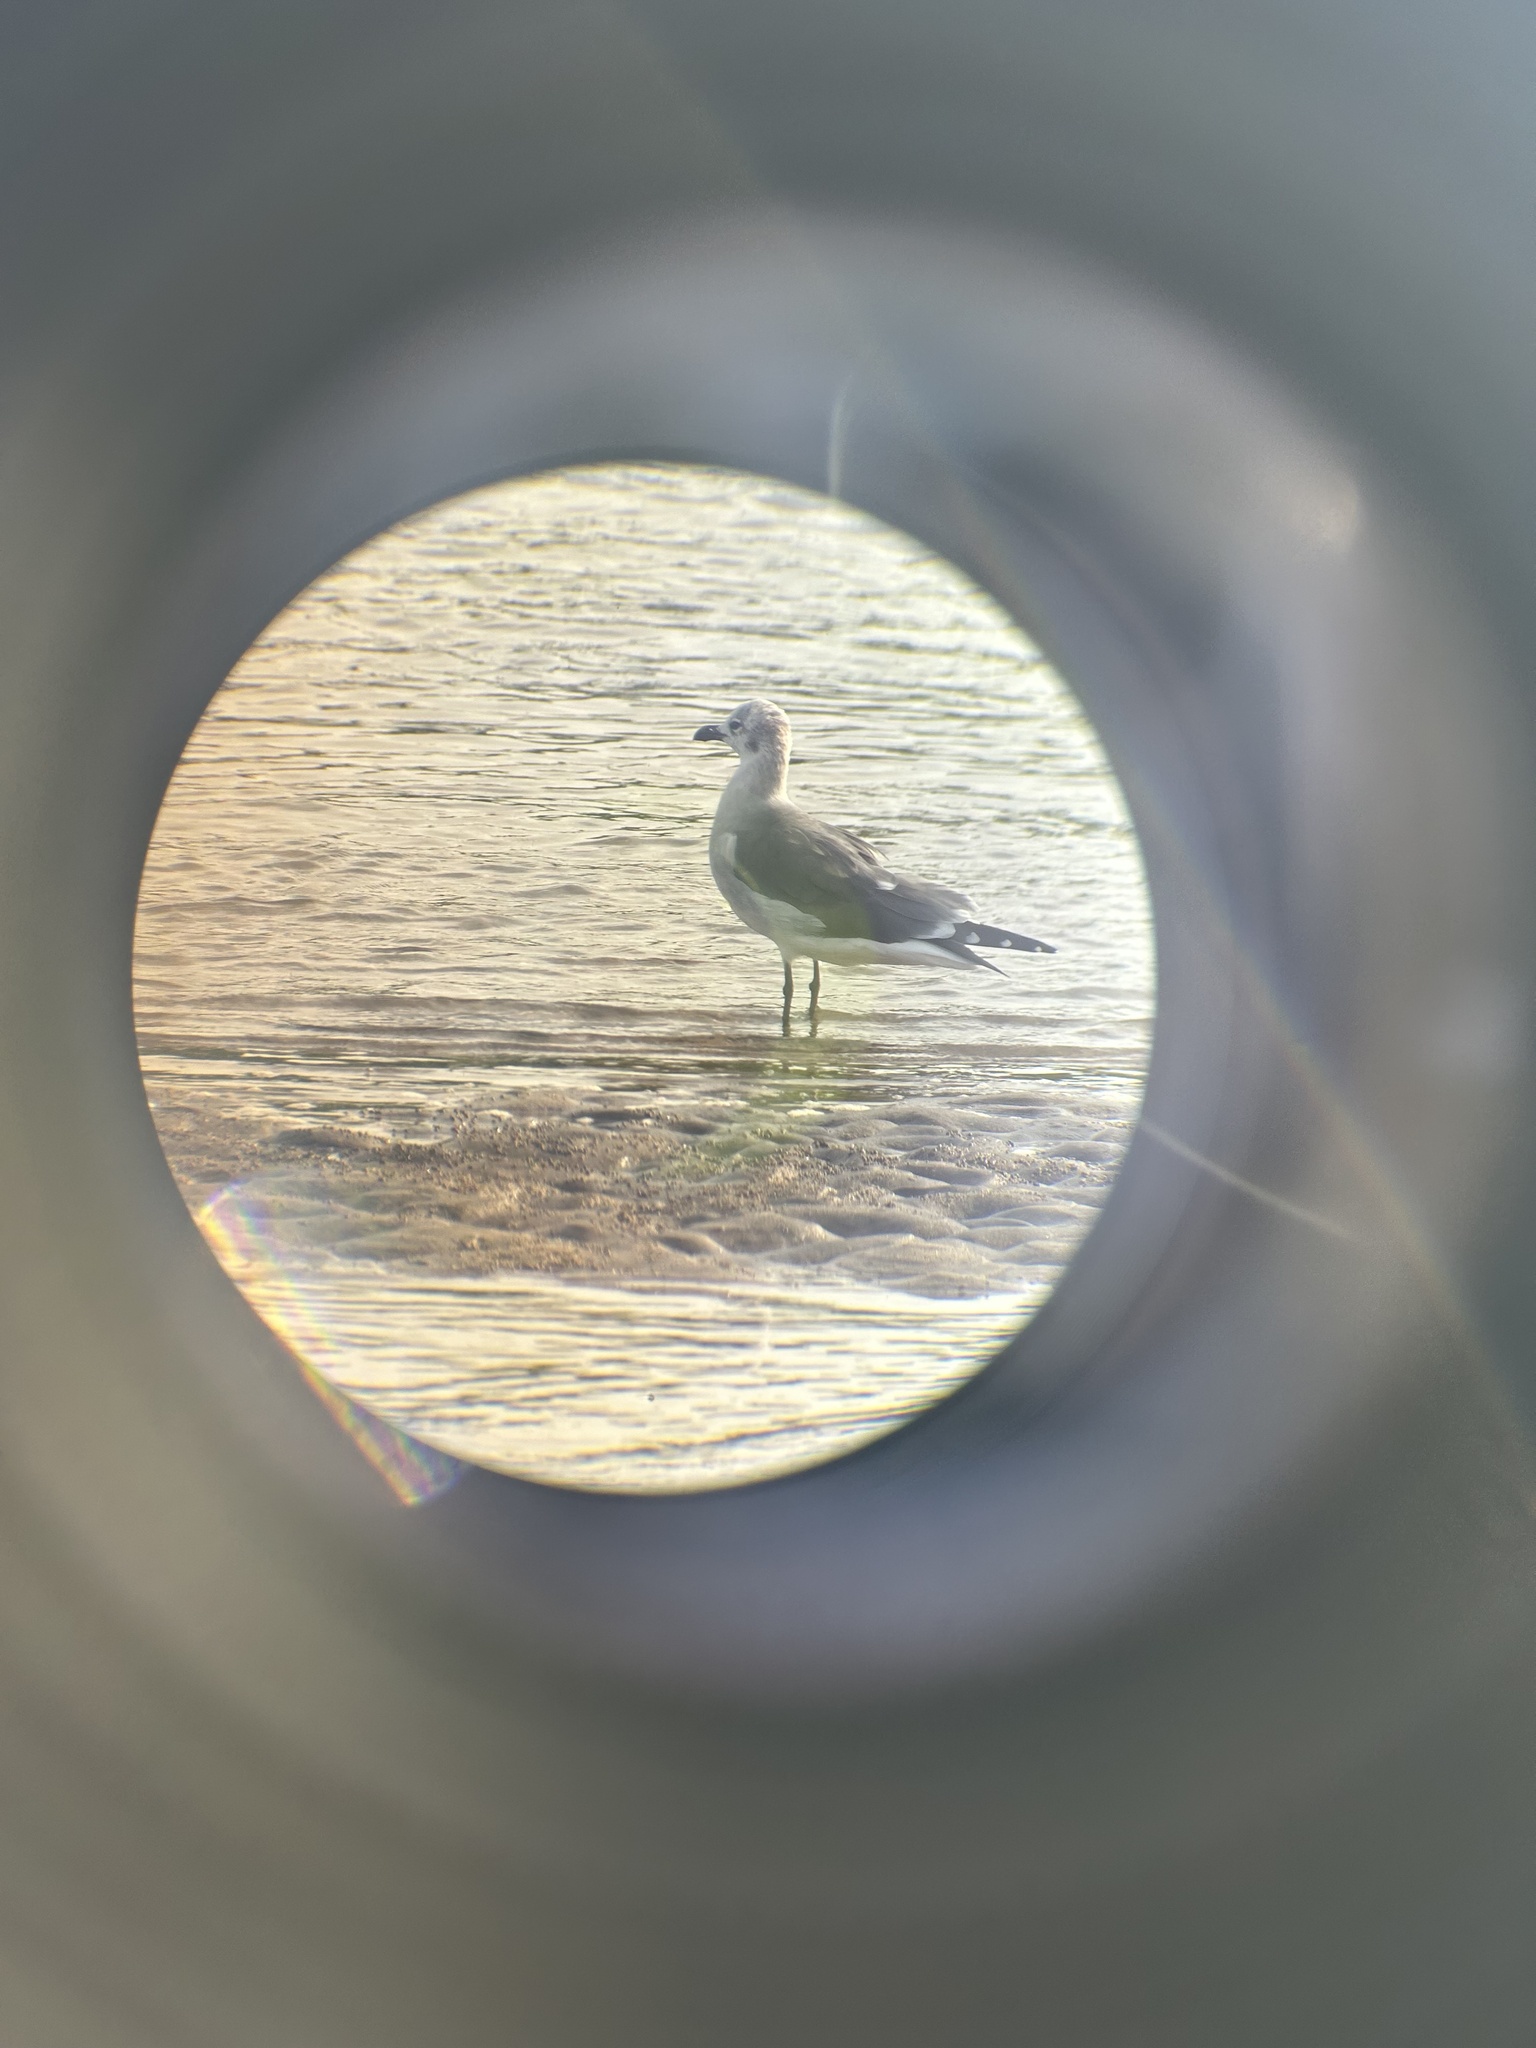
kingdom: Animalia
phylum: Chordata
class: Aves
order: Charadriiformes
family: Laridae
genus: Leucophaeus
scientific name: Leucophaeus atricilla
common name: Laughing gull
